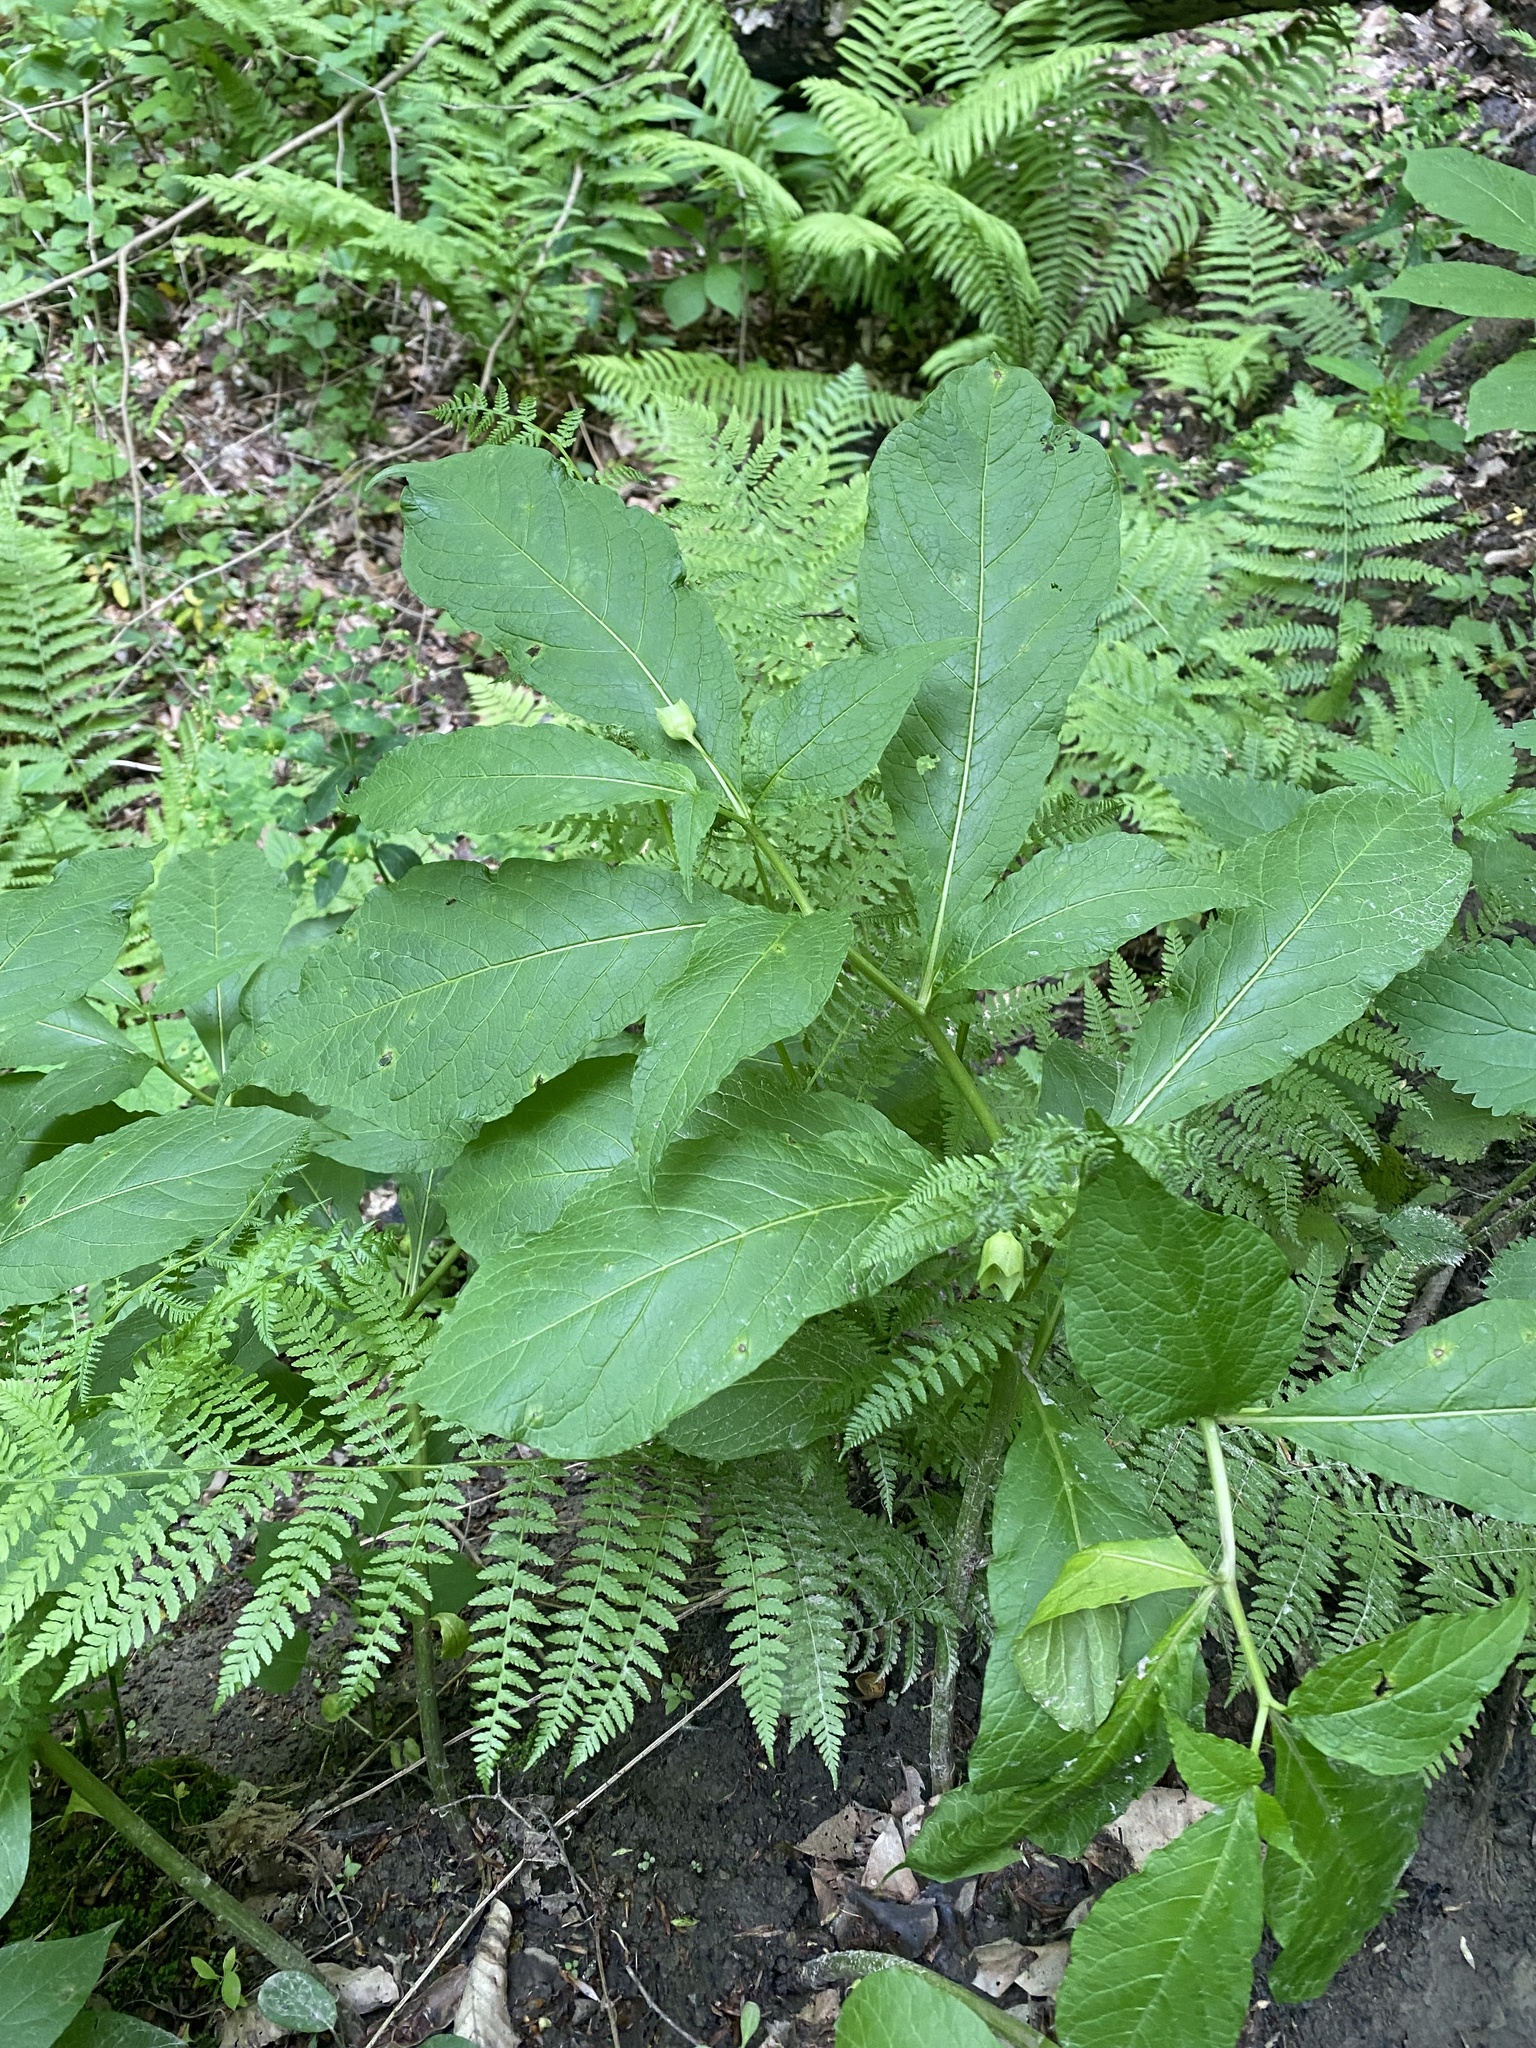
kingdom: Plantae
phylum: Tracheophyta
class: Magnoliopsida
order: Solanales
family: Solanaceae
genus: Atropa
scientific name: Atropa belladonna
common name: Deadly nightshade
